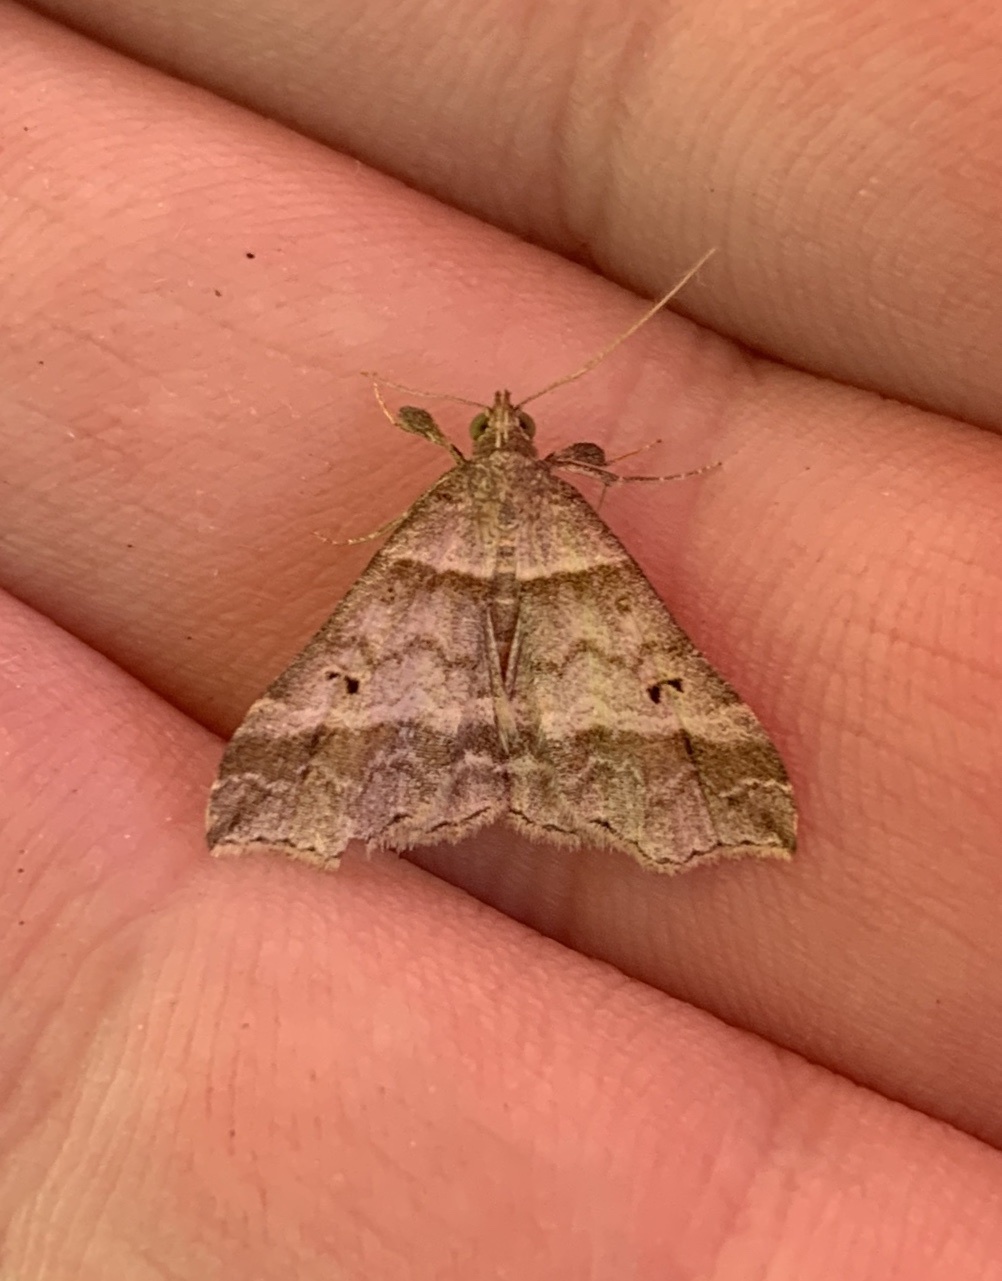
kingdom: Animalia
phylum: Arthropoda
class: Insecta
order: Lepidoptera
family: Erebidae
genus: Phaeolita
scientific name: Phaeolita pyramusalis
